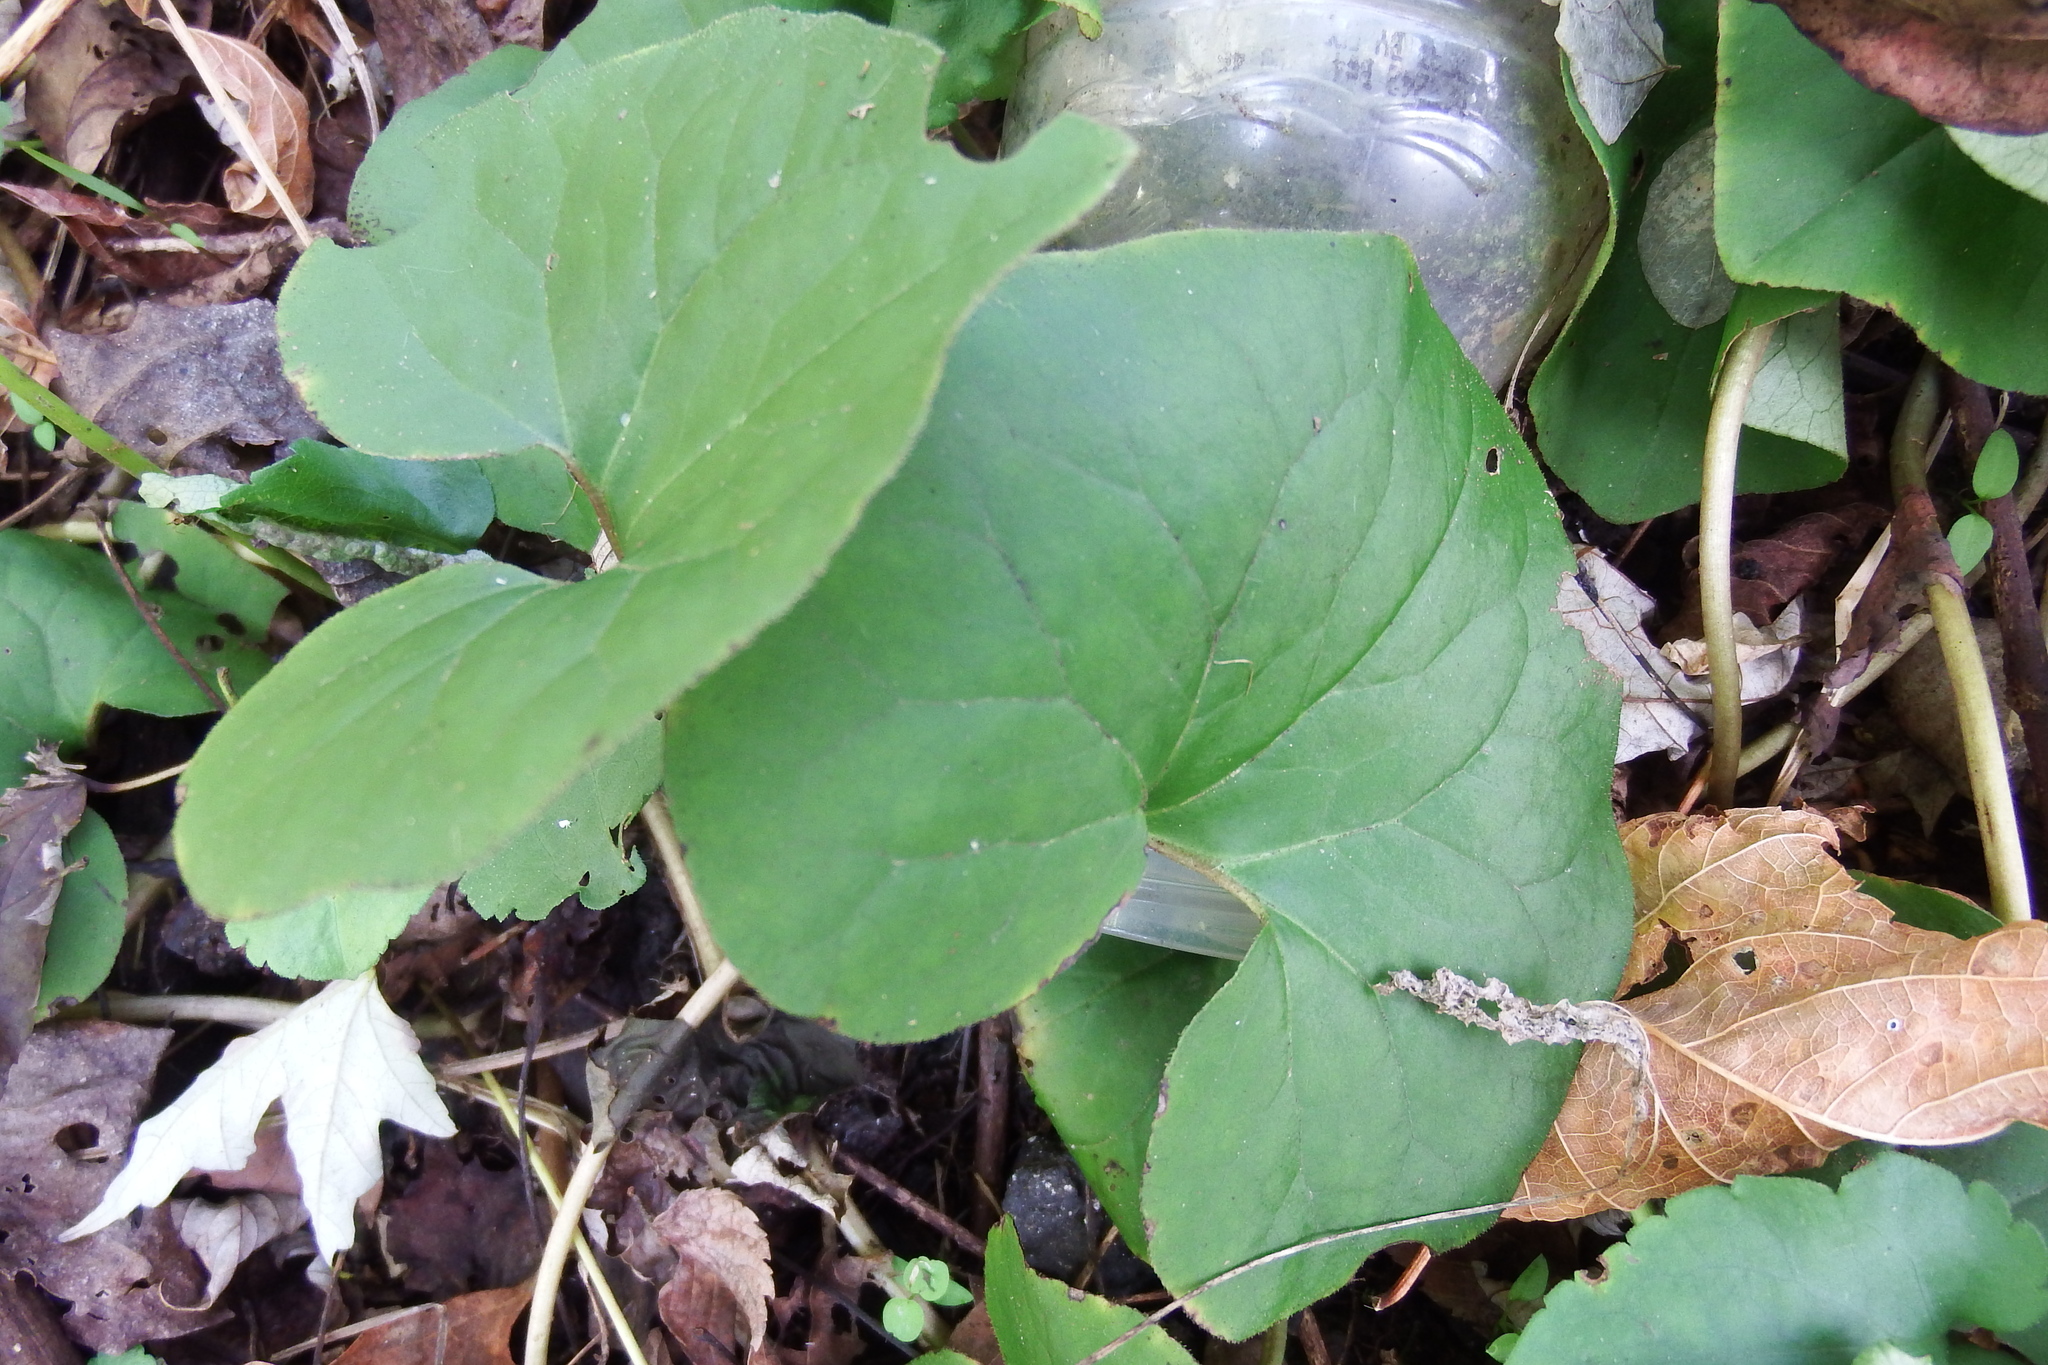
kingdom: Plantae
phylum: Tracheophyta
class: Magnoliopsida
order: Piperales
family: Aristolochiaceae
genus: Asarum
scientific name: Asarum canadense
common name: Wild ginger
